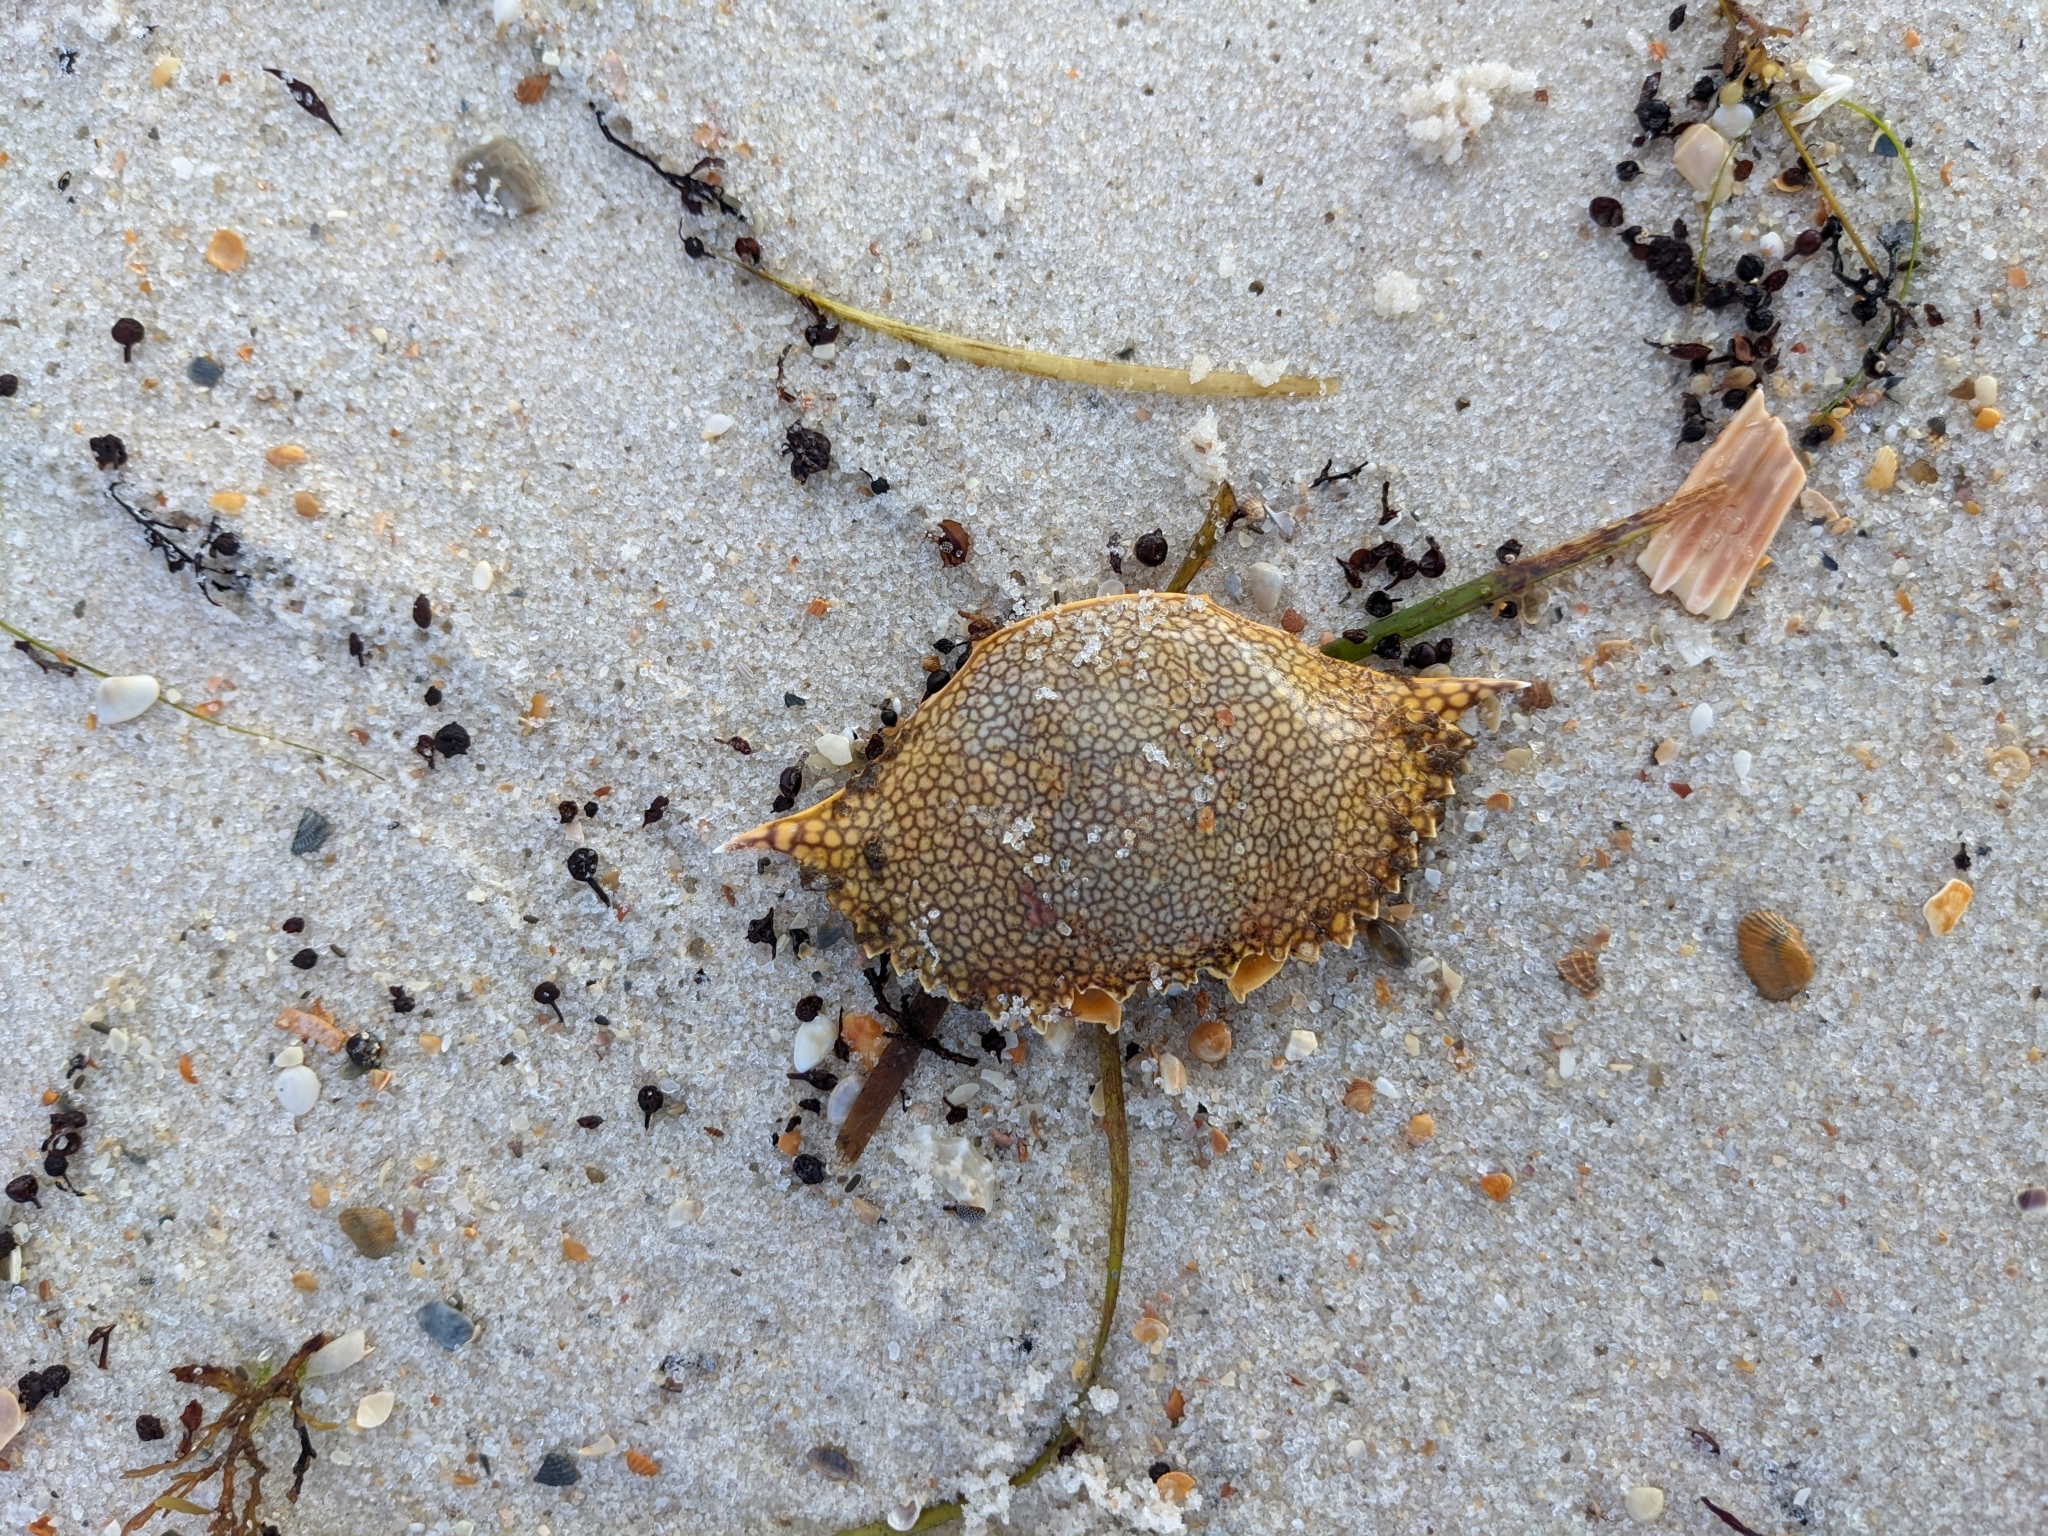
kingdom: Animalia
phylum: Arthropoda
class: Malacostraca
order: Decapoda
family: Portunidae
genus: Arenaeus
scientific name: Arenaeus cribrarius
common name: Speckled crab
